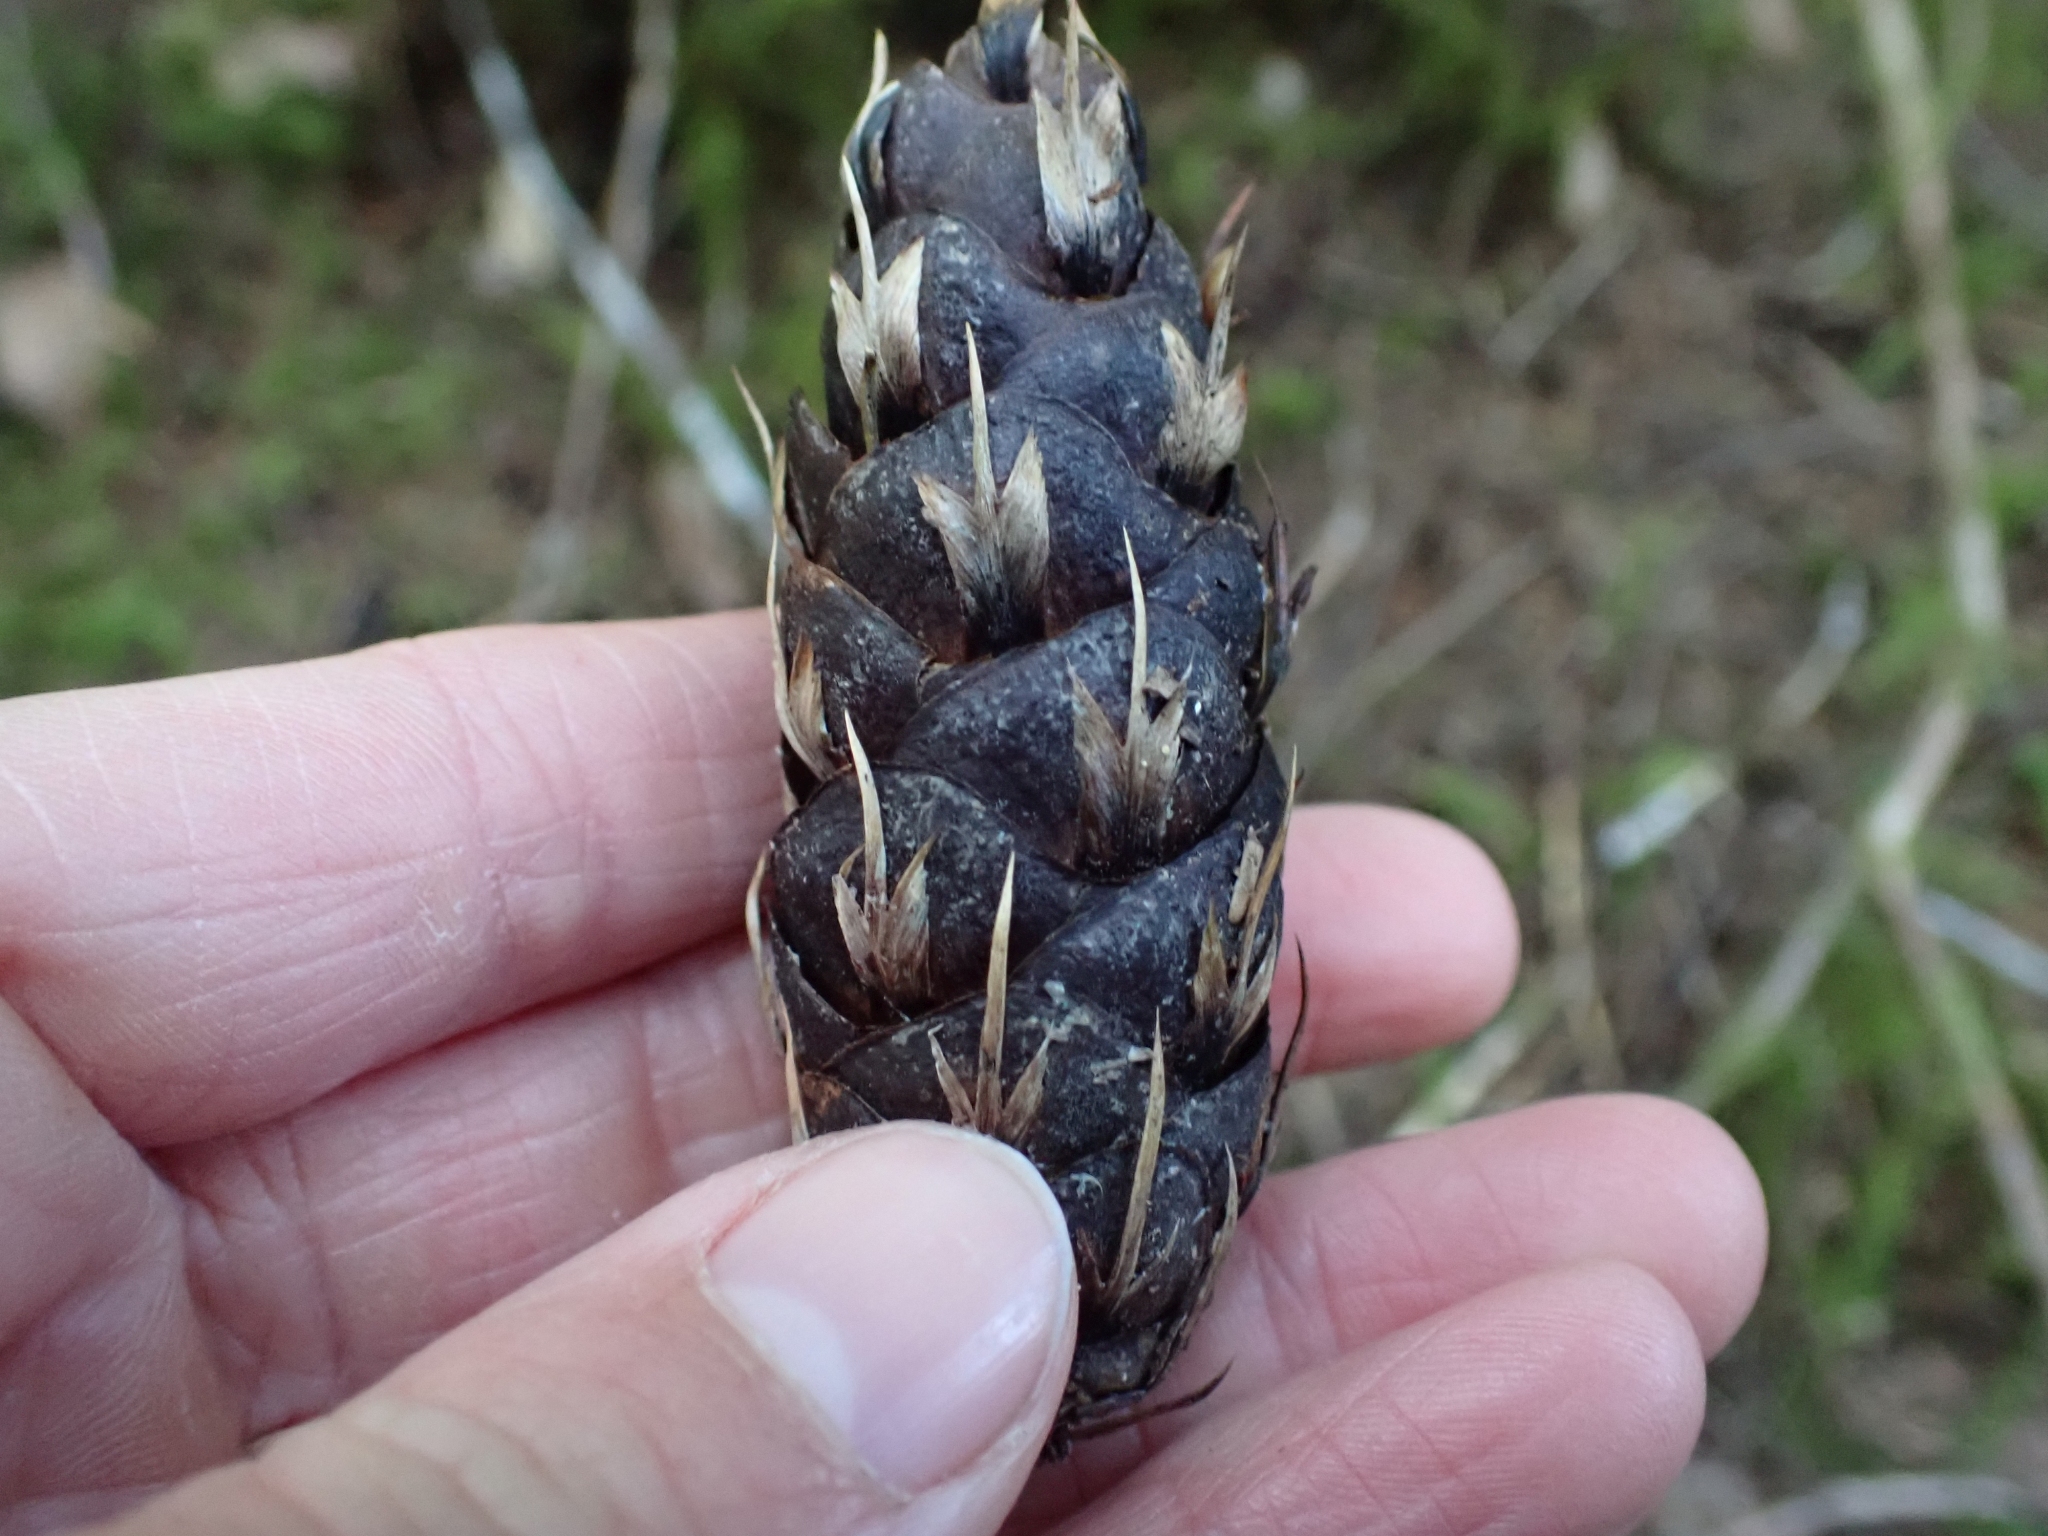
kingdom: Plantae
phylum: Tracheophyta
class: Pinopsida
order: Pinales
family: Pinaceae
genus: Pseudotsuga
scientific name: Pseudotsuga menziesii
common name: Douglas fir
